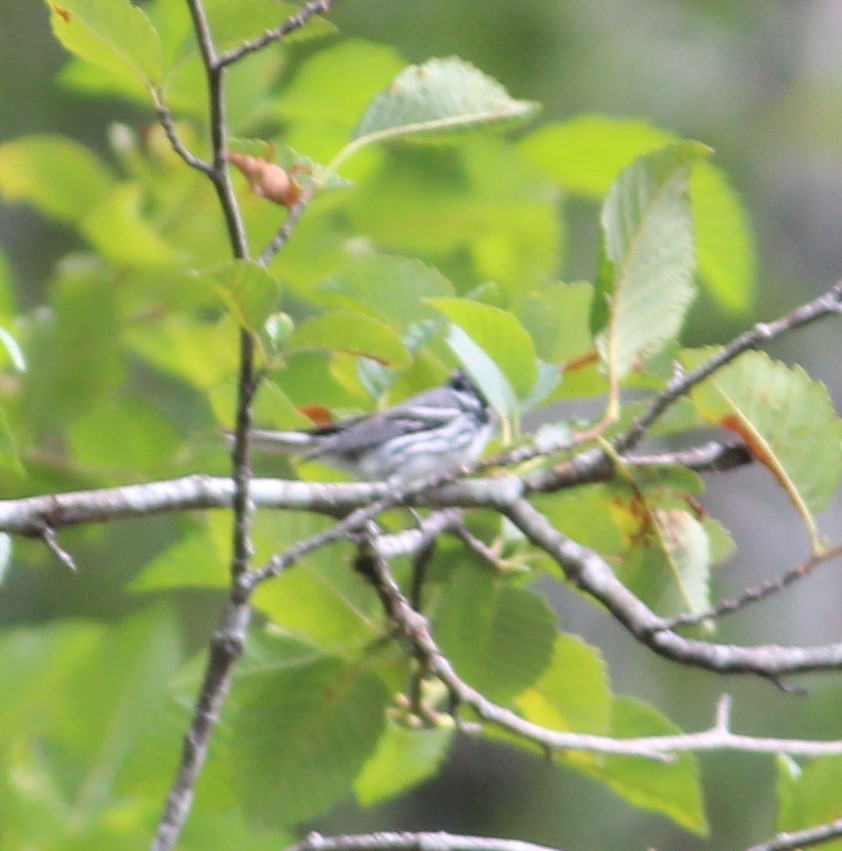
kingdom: Animalia
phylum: Chordata
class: Aves
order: Passeriformes
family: Parulidae
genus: Setophaga
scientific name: Setophaga nigrescens
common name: Black-throated gray warbler
